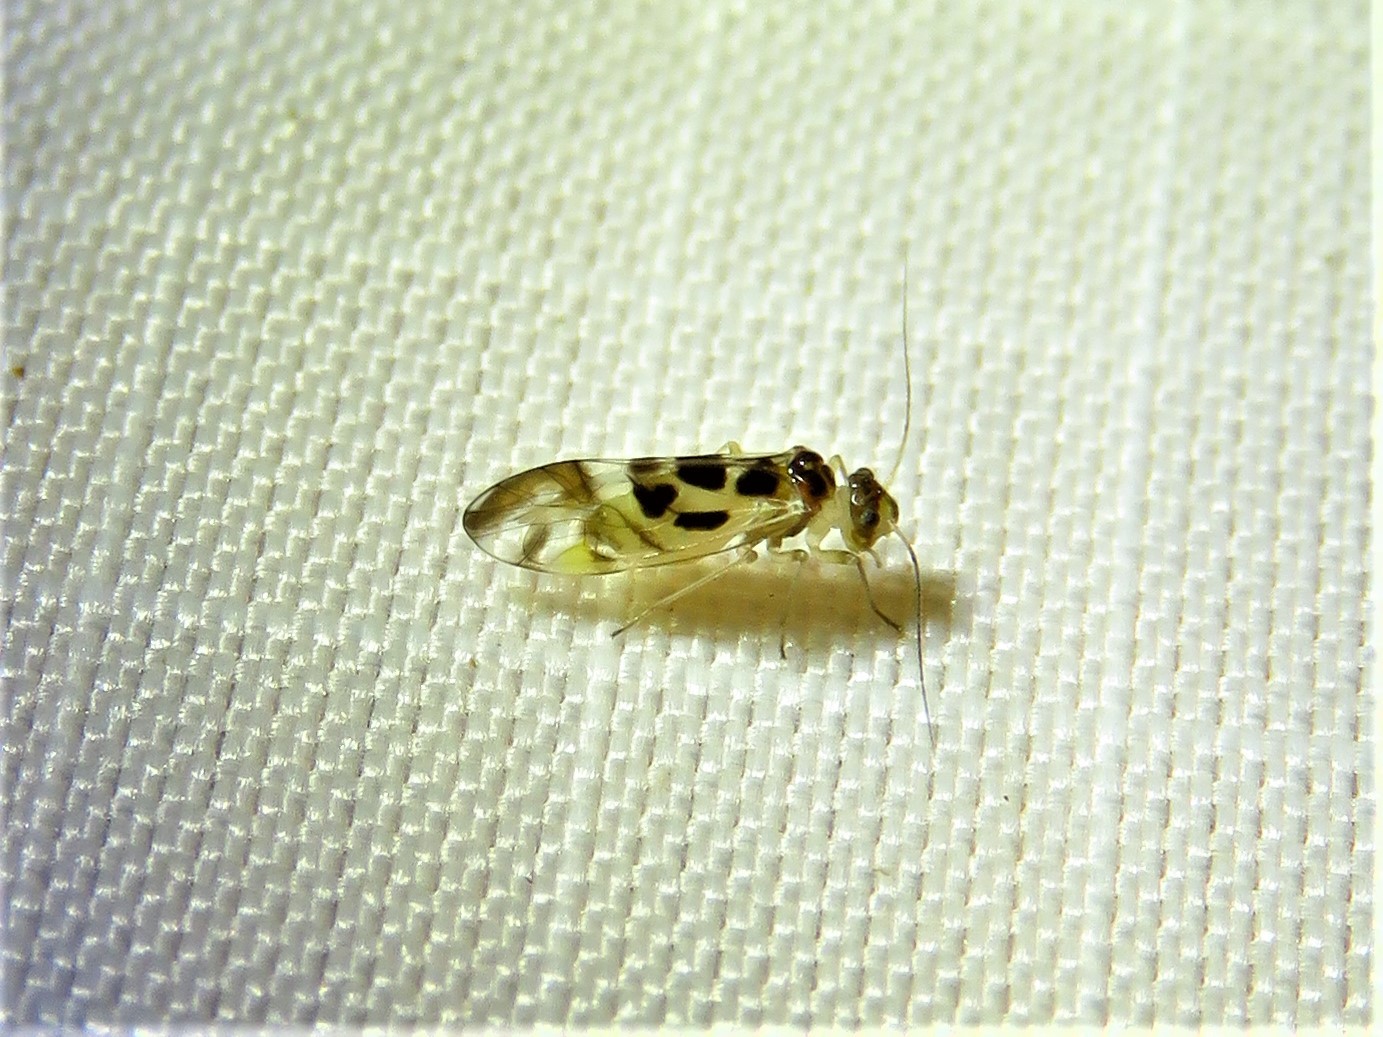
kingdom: Animalia
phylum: Arthropoda
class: Insecta
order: Psocodea
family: Stenopsocidae
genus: Graphopsocus
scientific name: Graphopsocus cruciatus
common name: Lizard bark louse
